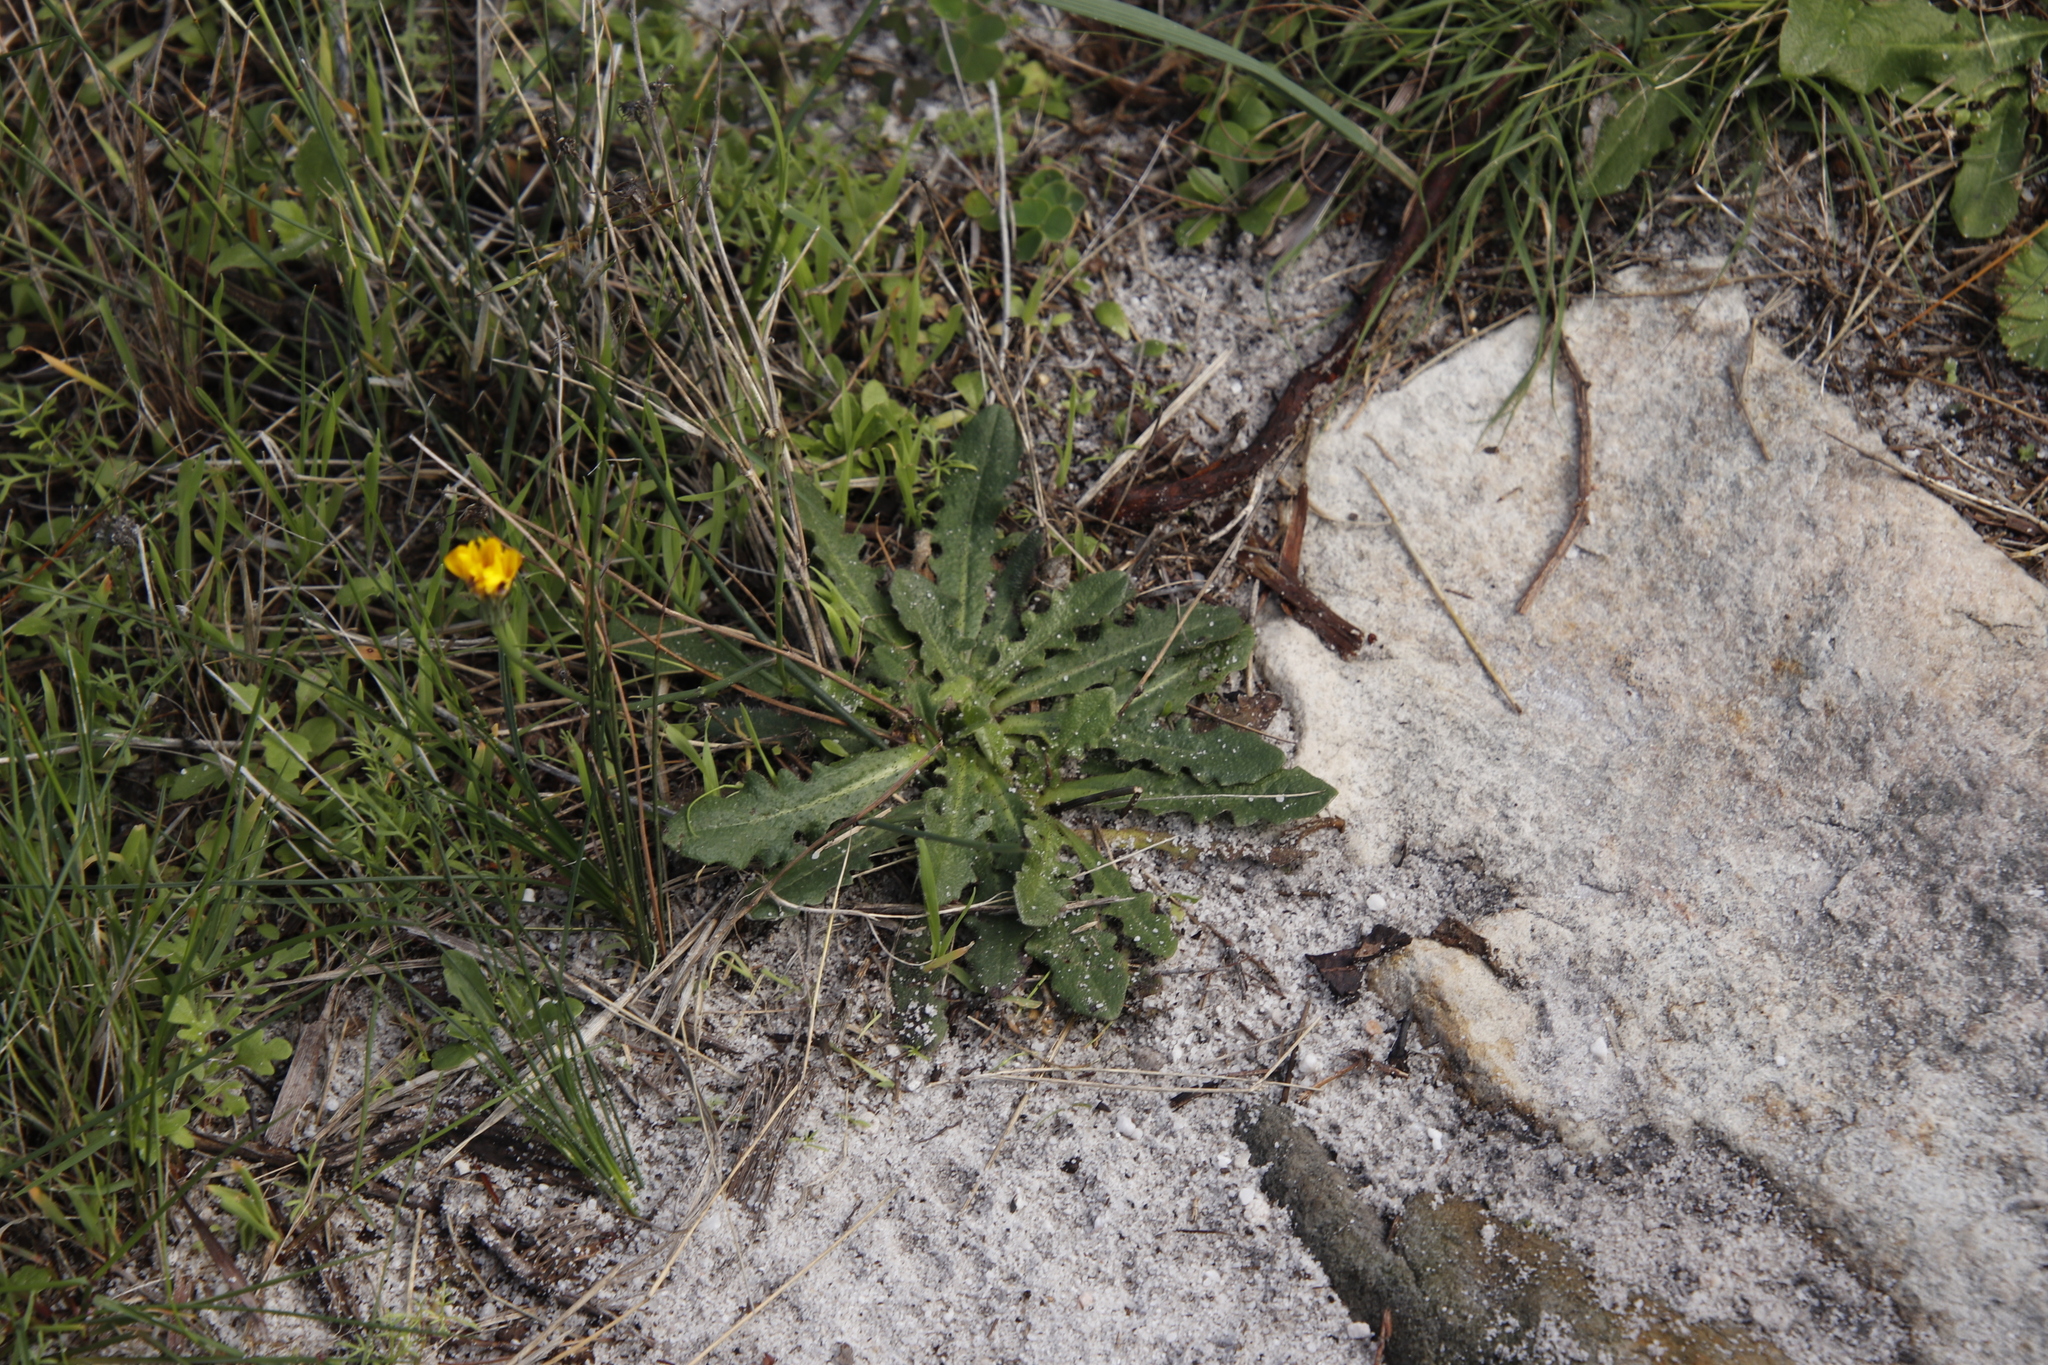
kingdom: Plantae
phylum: Tracheophyta
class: Magnoliopsida
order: Asterales
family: Asteraceae
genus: Hypochaeris
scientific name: Hypochaeris radicata
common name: Flatweed
